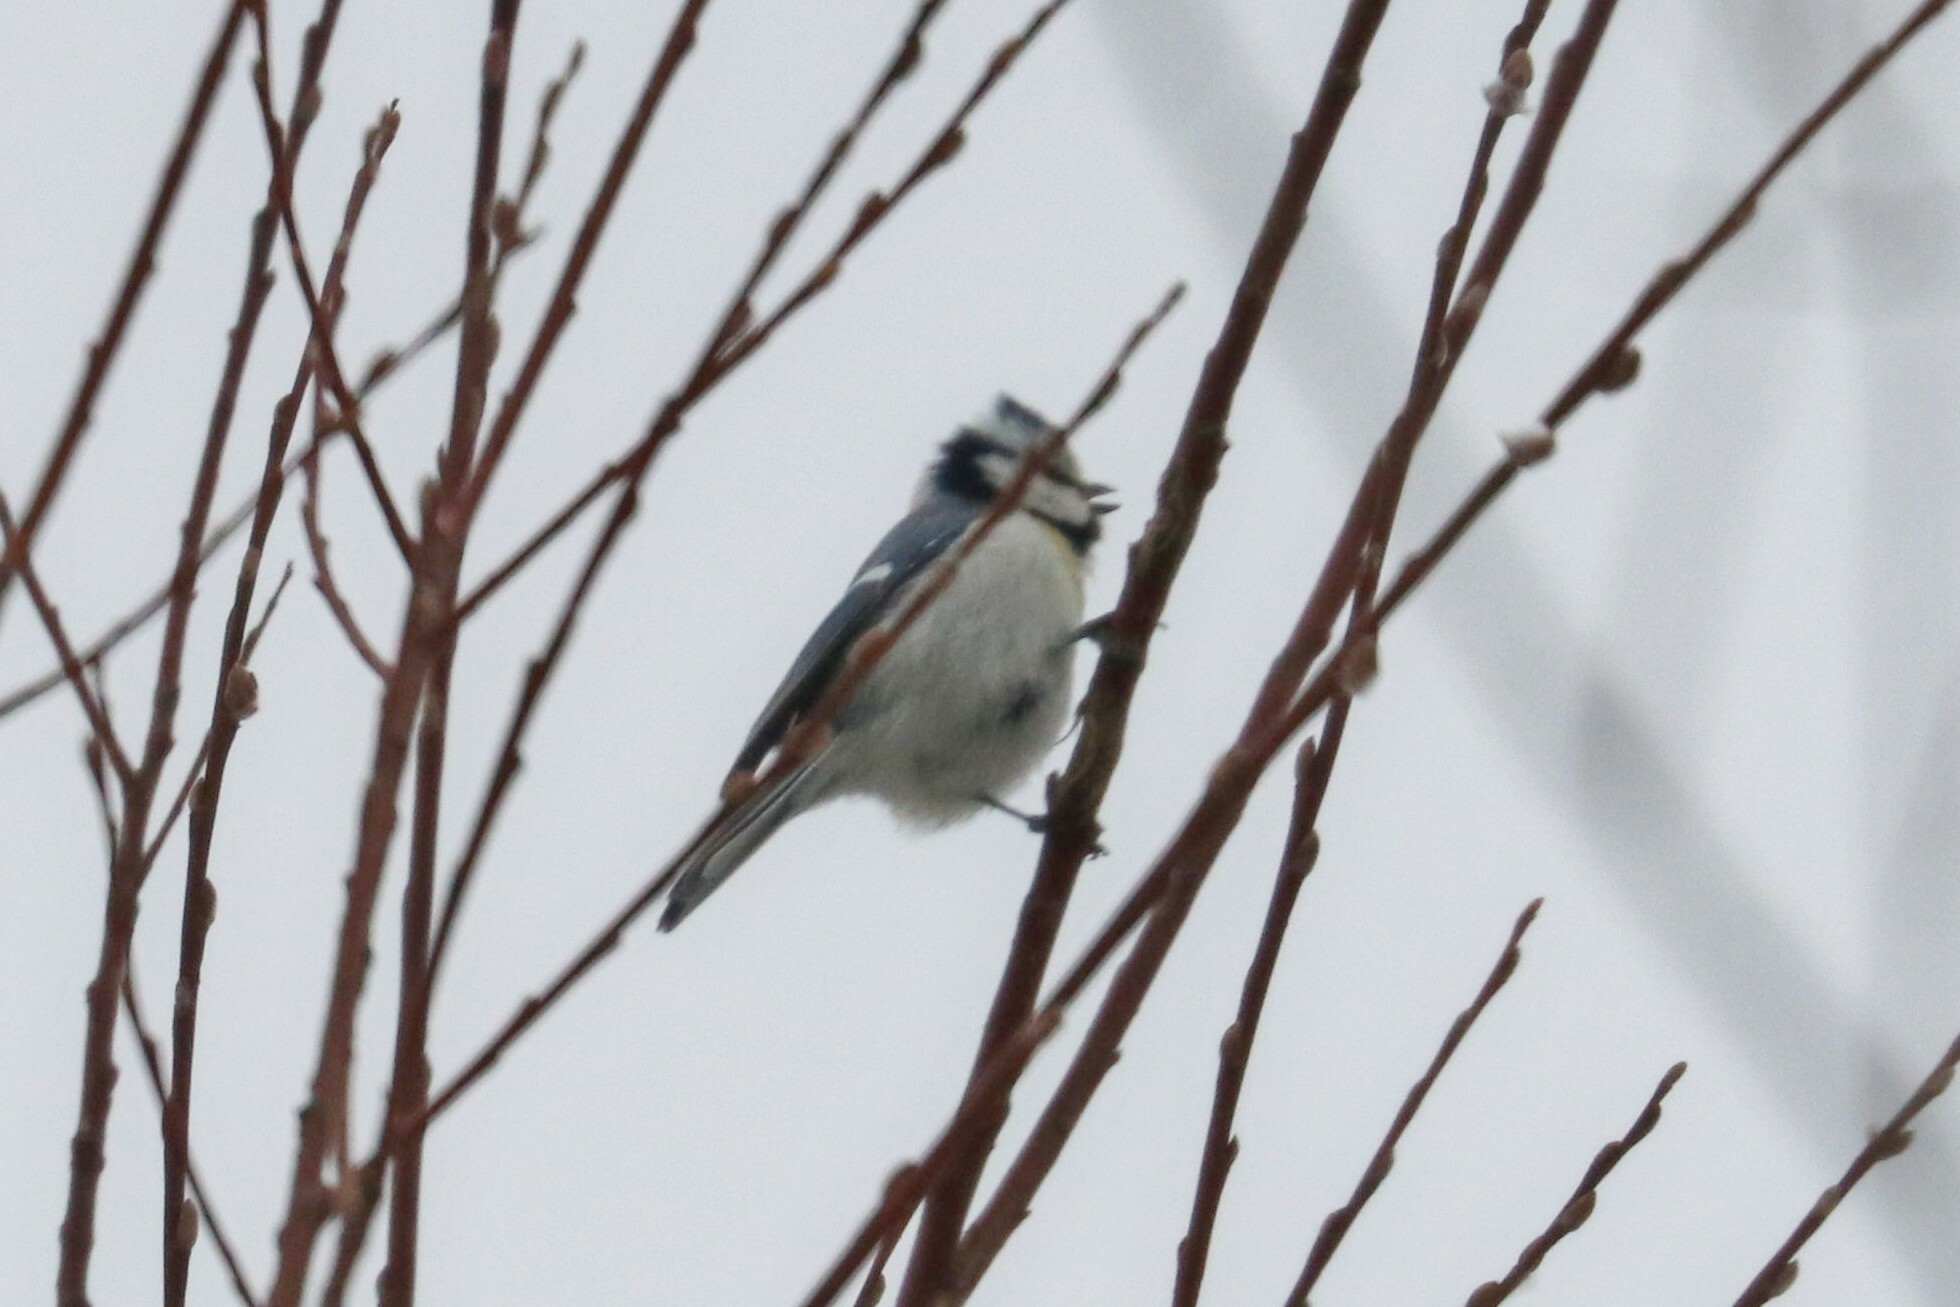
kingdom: Animalia
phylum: Chordata
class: Aves
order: Passeriformes
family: Paridae
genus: Cyanistes
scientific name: Cyanistes
